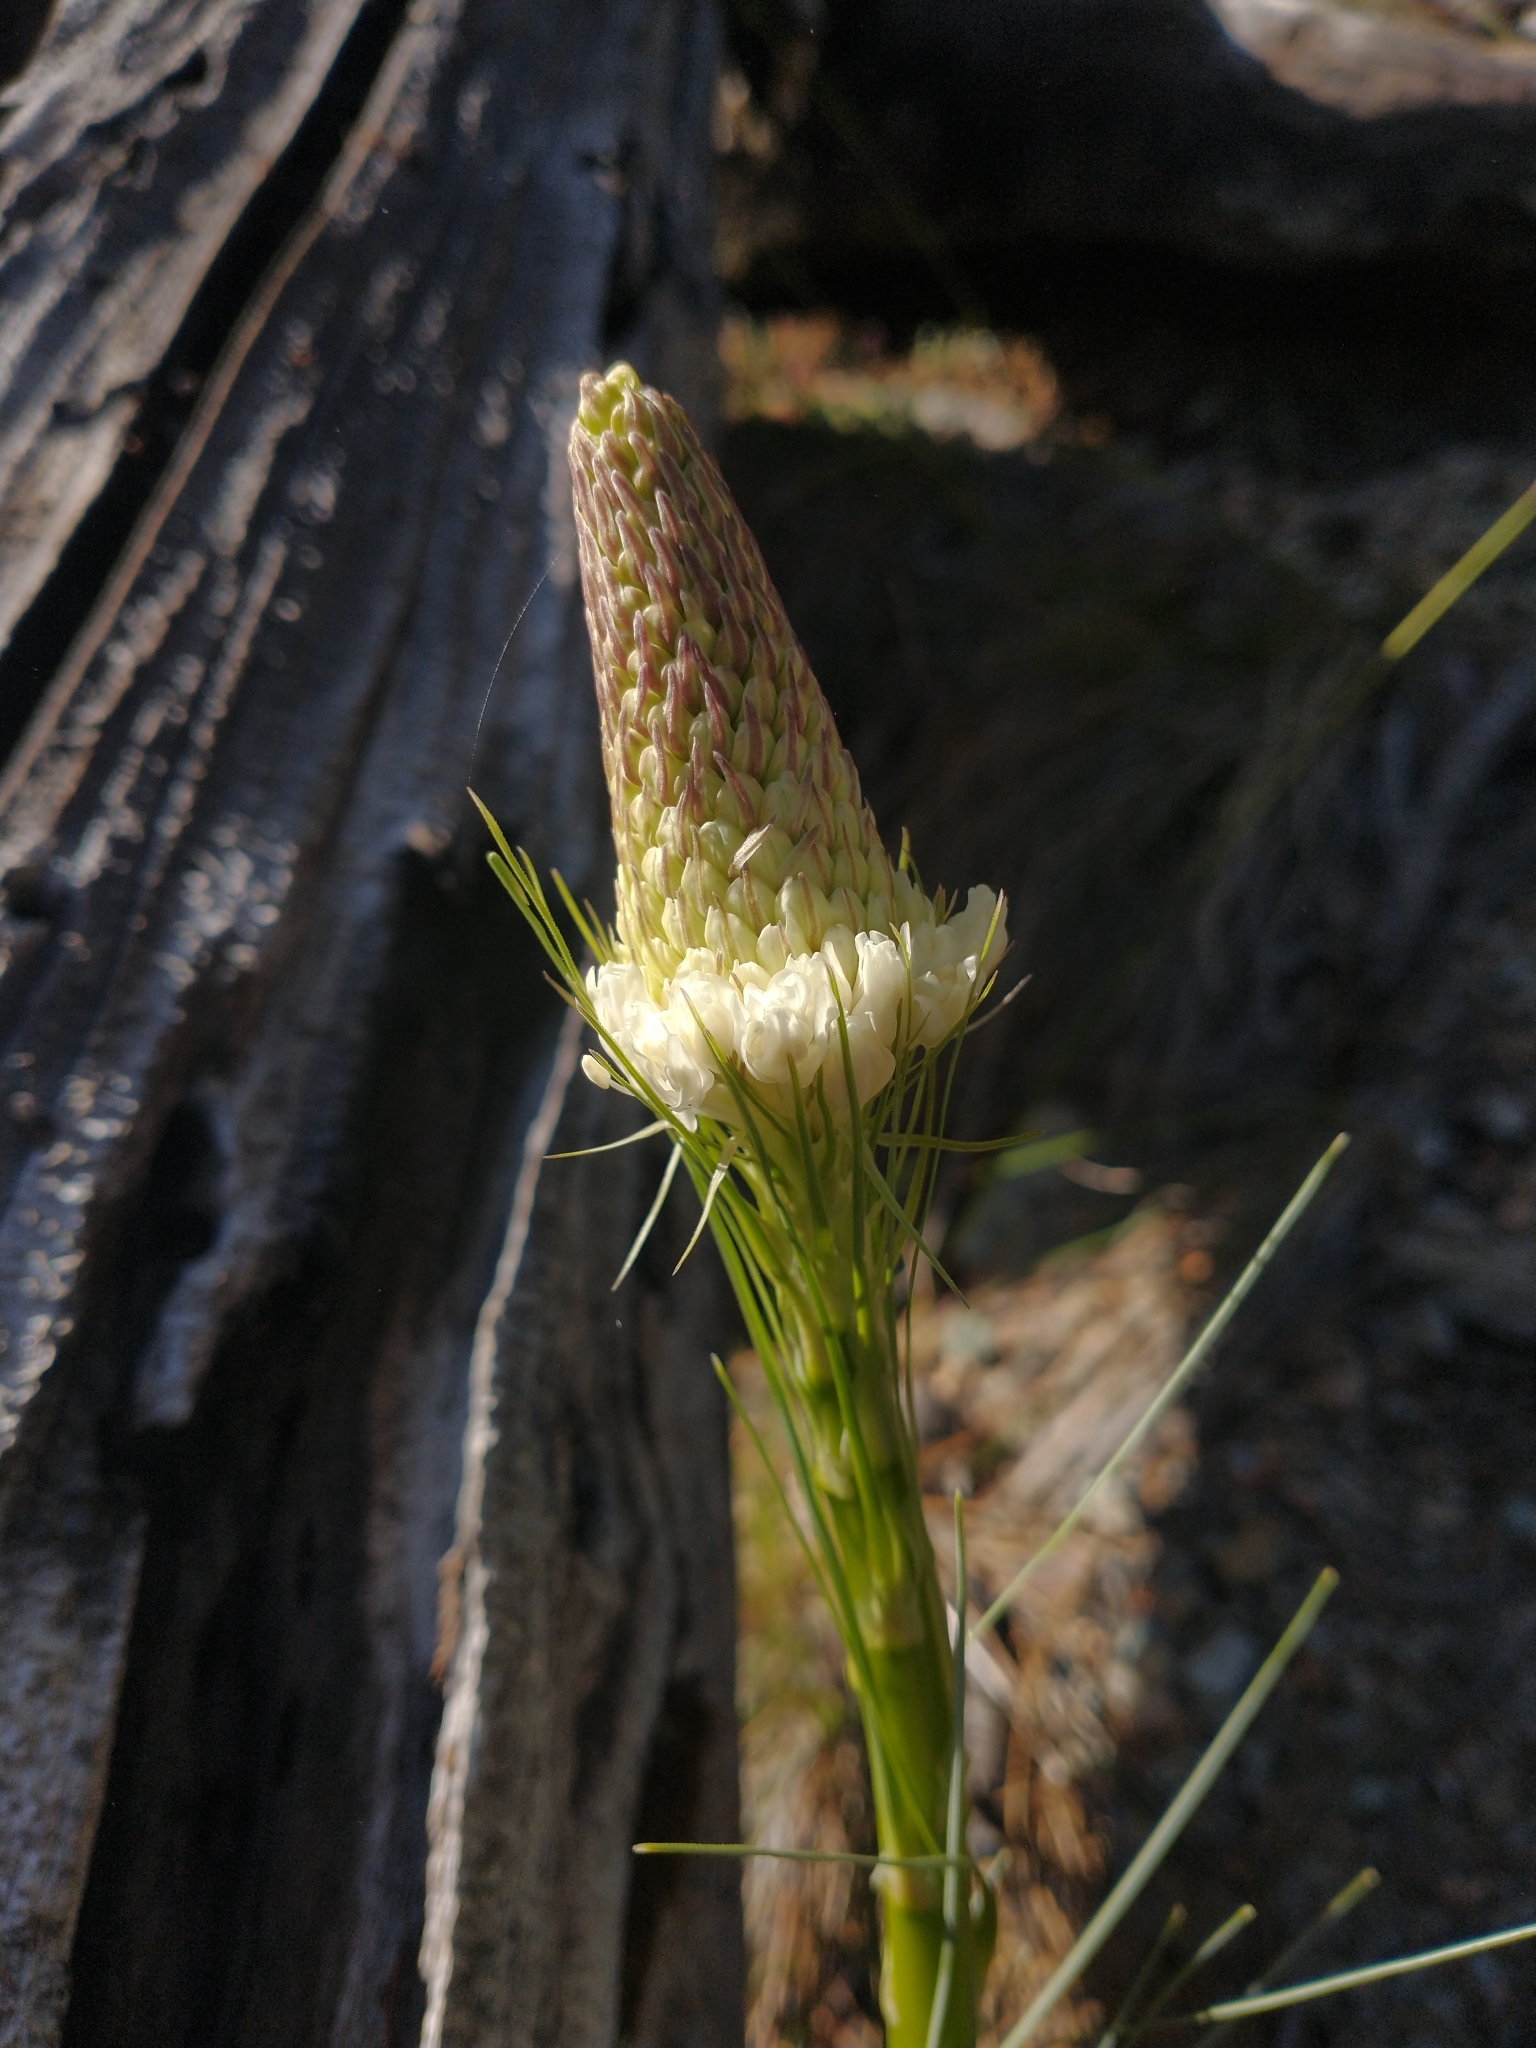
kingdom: Plantae
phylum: Tracheophyta
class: Liliopsida
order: Liliales
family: Melanthiaceae
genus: Xerophyllum
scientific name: Xerophyllum tenax
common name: Bear-grass
